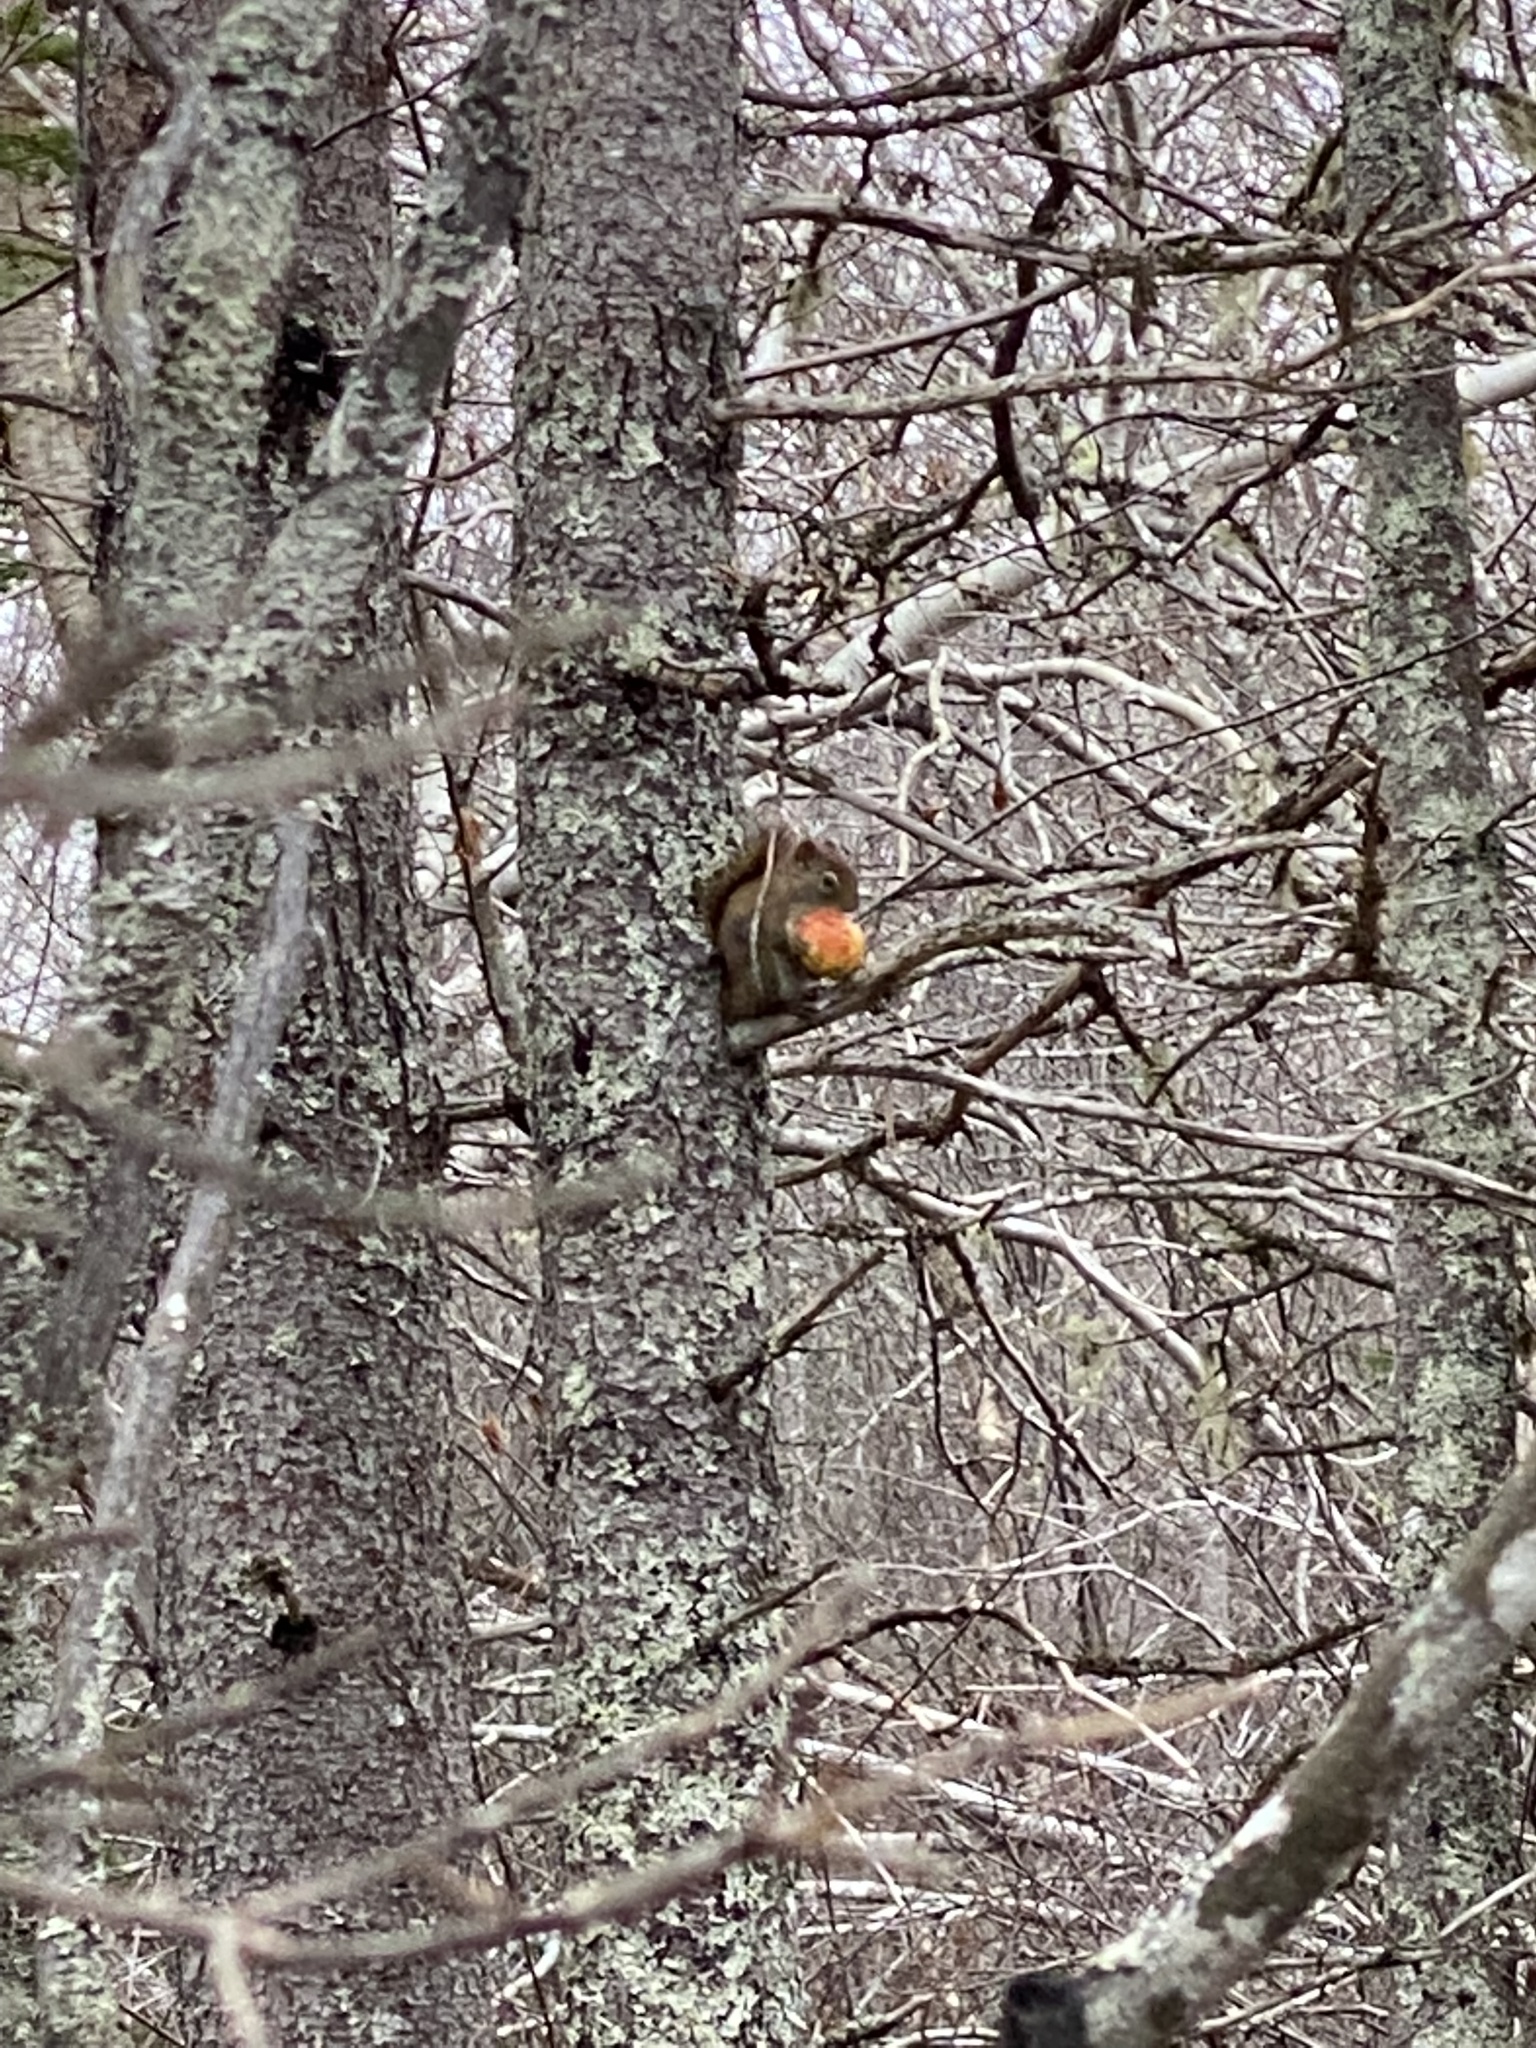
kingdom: Animalia
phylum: Chordata
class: Mammalia
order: Rodentia
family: Sciuridae
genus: Tamiasciurus
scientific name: Tamiasciurus hudsonicus
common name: Red squirrel
